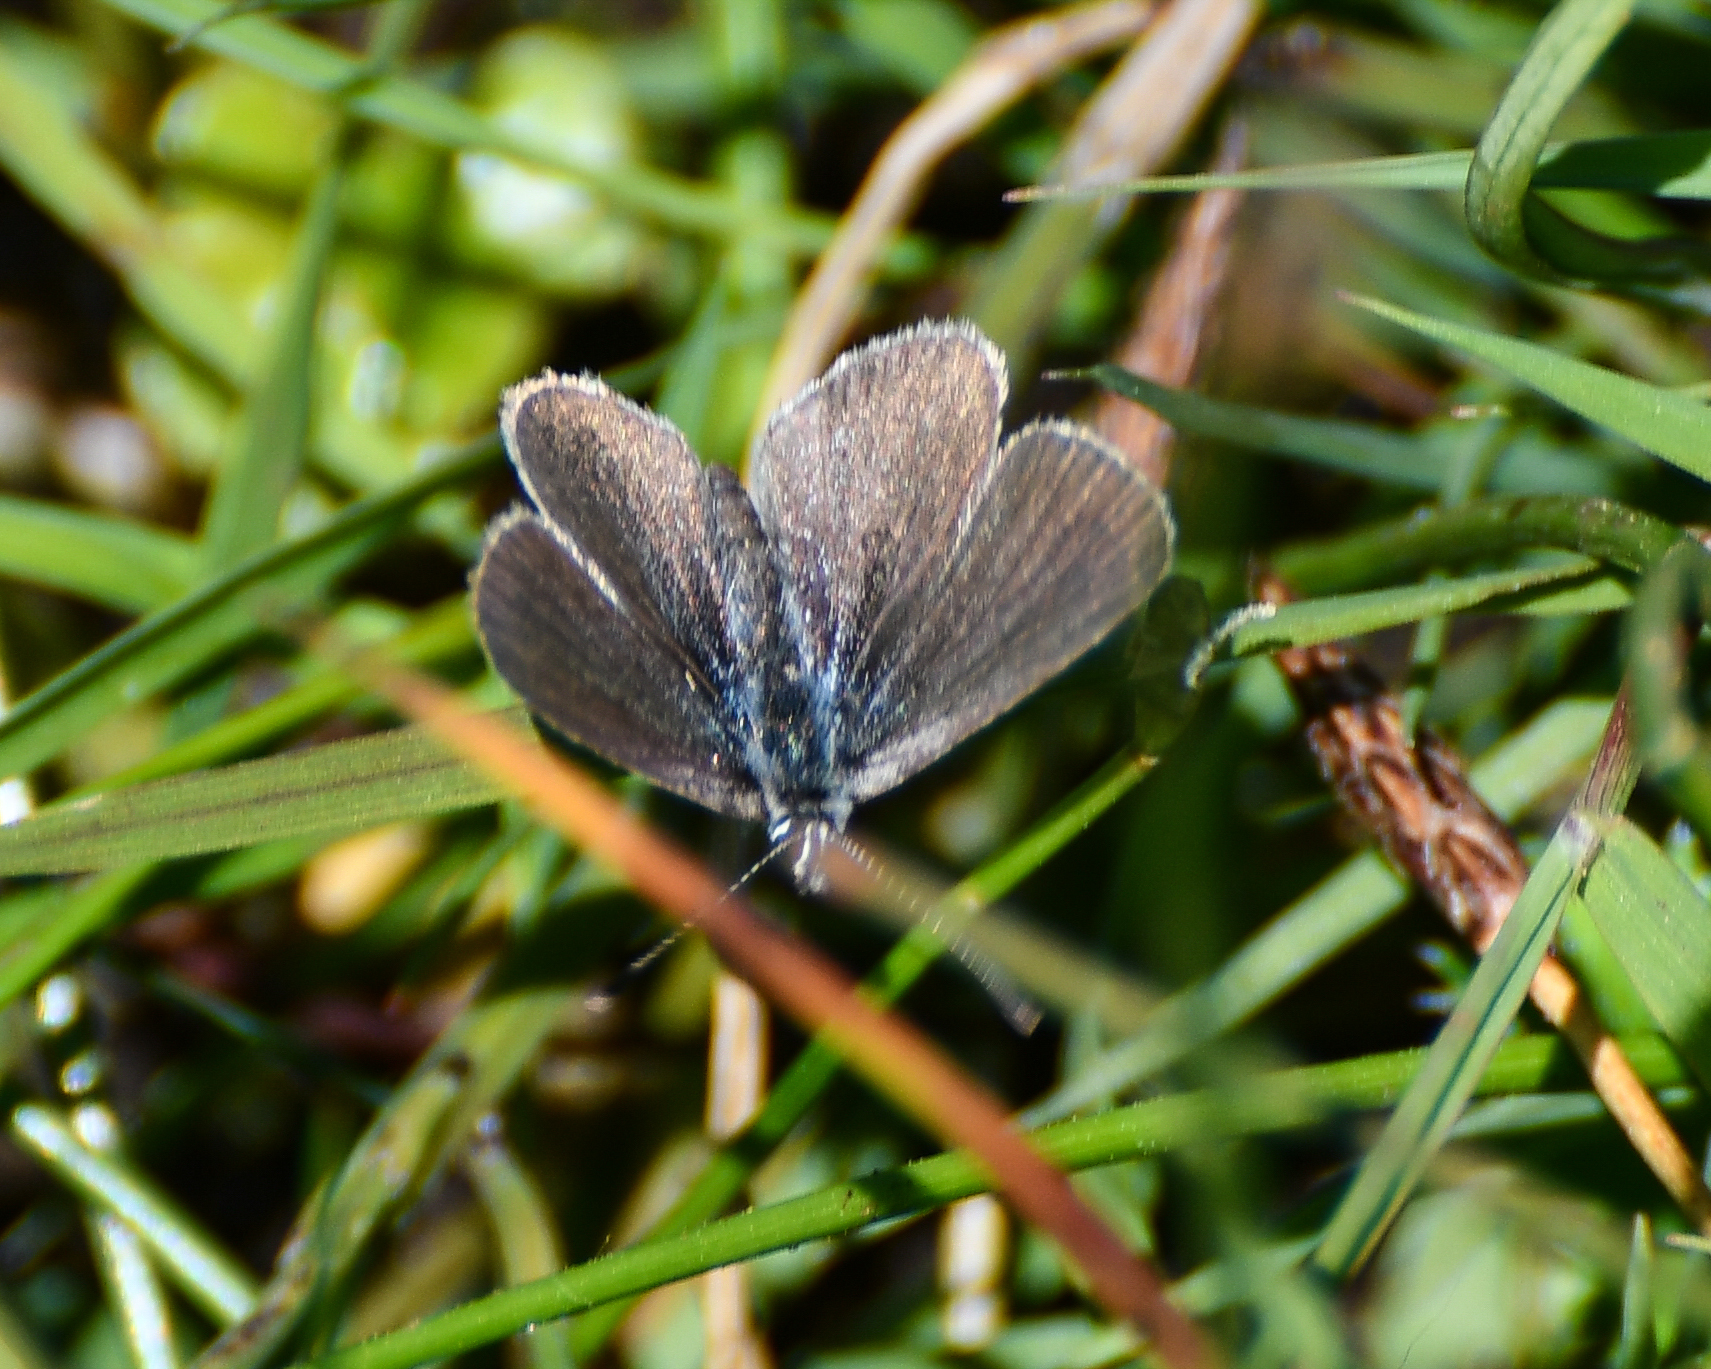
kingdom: Animalia
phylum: Arthropoda
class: Insecta
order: Lepidoptera
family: Lycaenidae
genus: Cupido
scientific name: Cupido minimus
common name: Small blue
